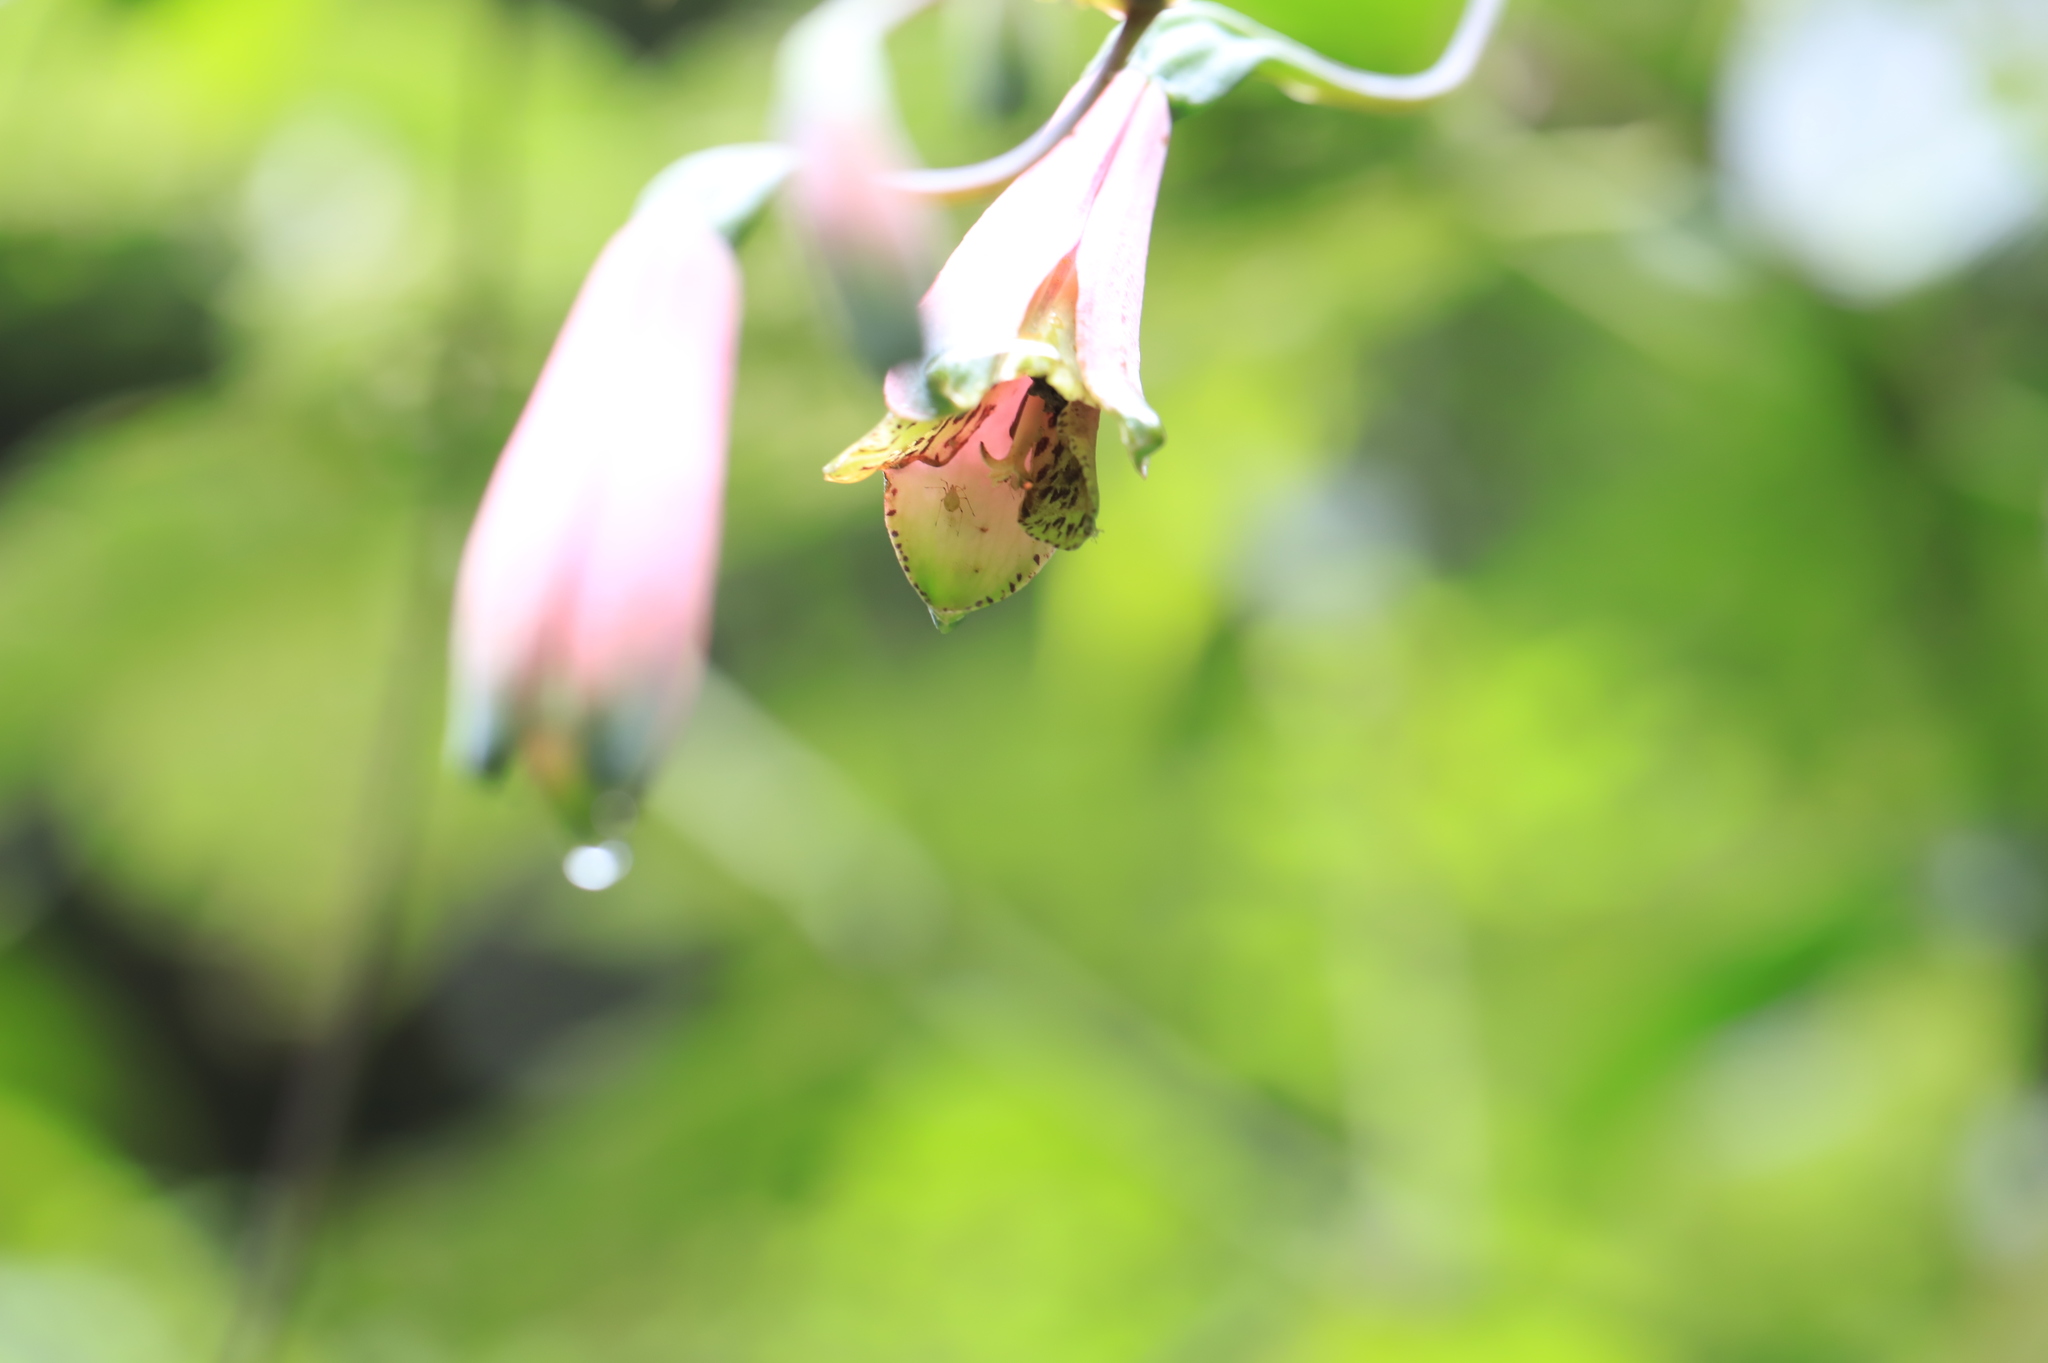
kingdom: Plantae
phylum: Tracheophyta
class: Liliopsida
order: Liliales
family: Alstroemeriaceae
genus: Bomarea
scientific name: Bomarea diffracta
